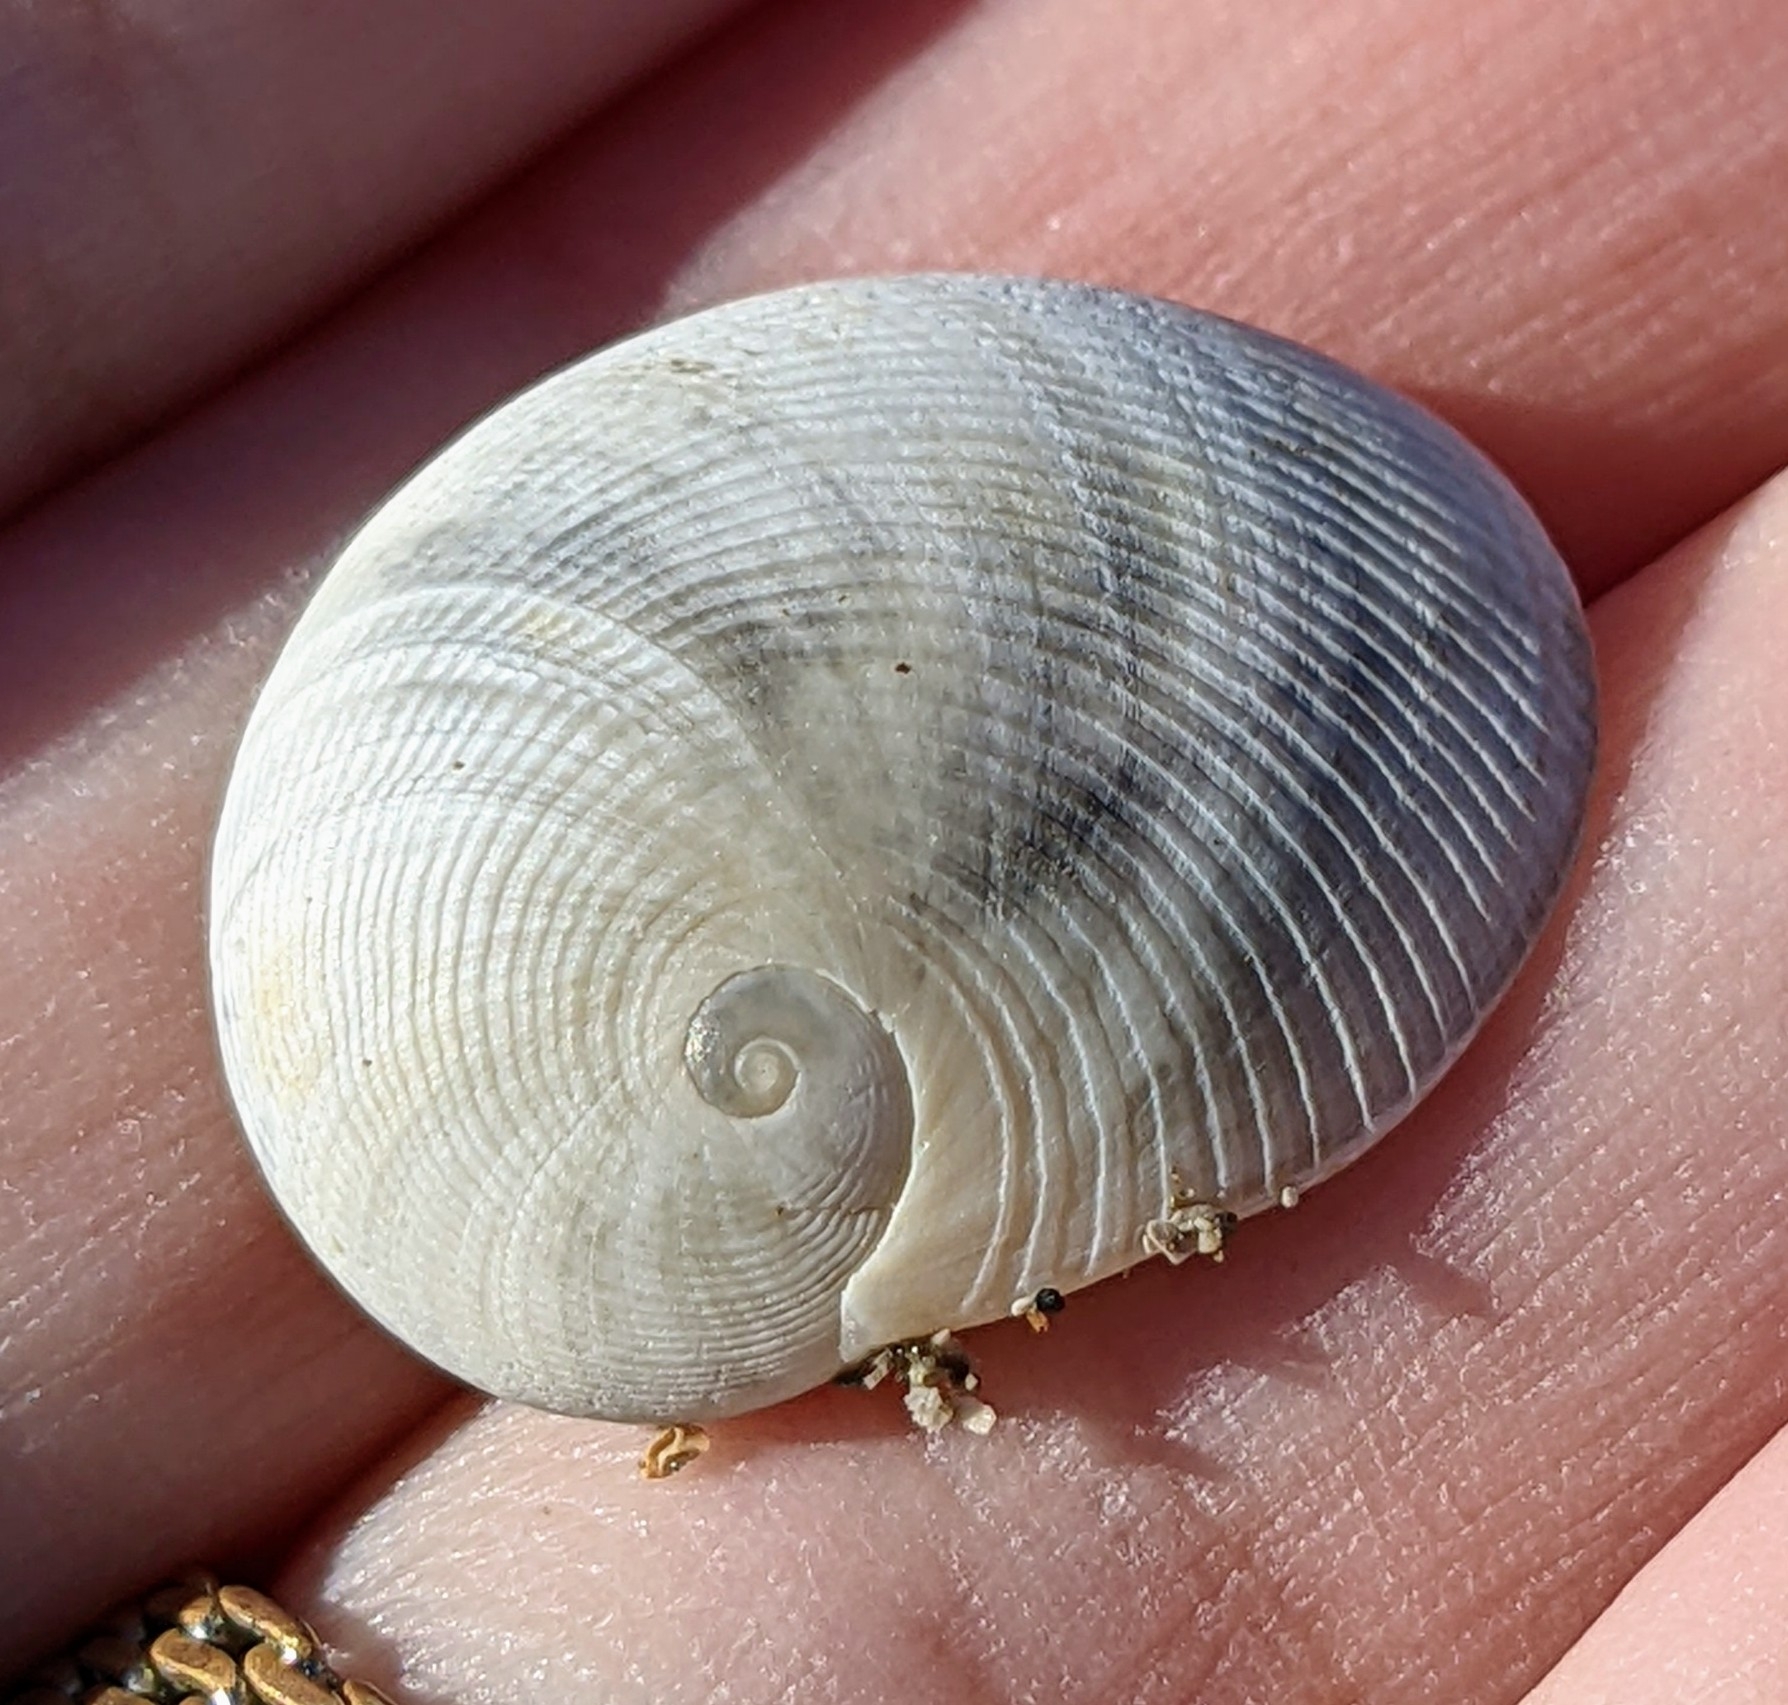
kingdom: Animalia
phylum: Mollusca
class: Gastropoda
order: Littorinimorpha
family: Naticidae
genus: Sinum
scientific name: Sinum perspectivum
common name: White baby ear
